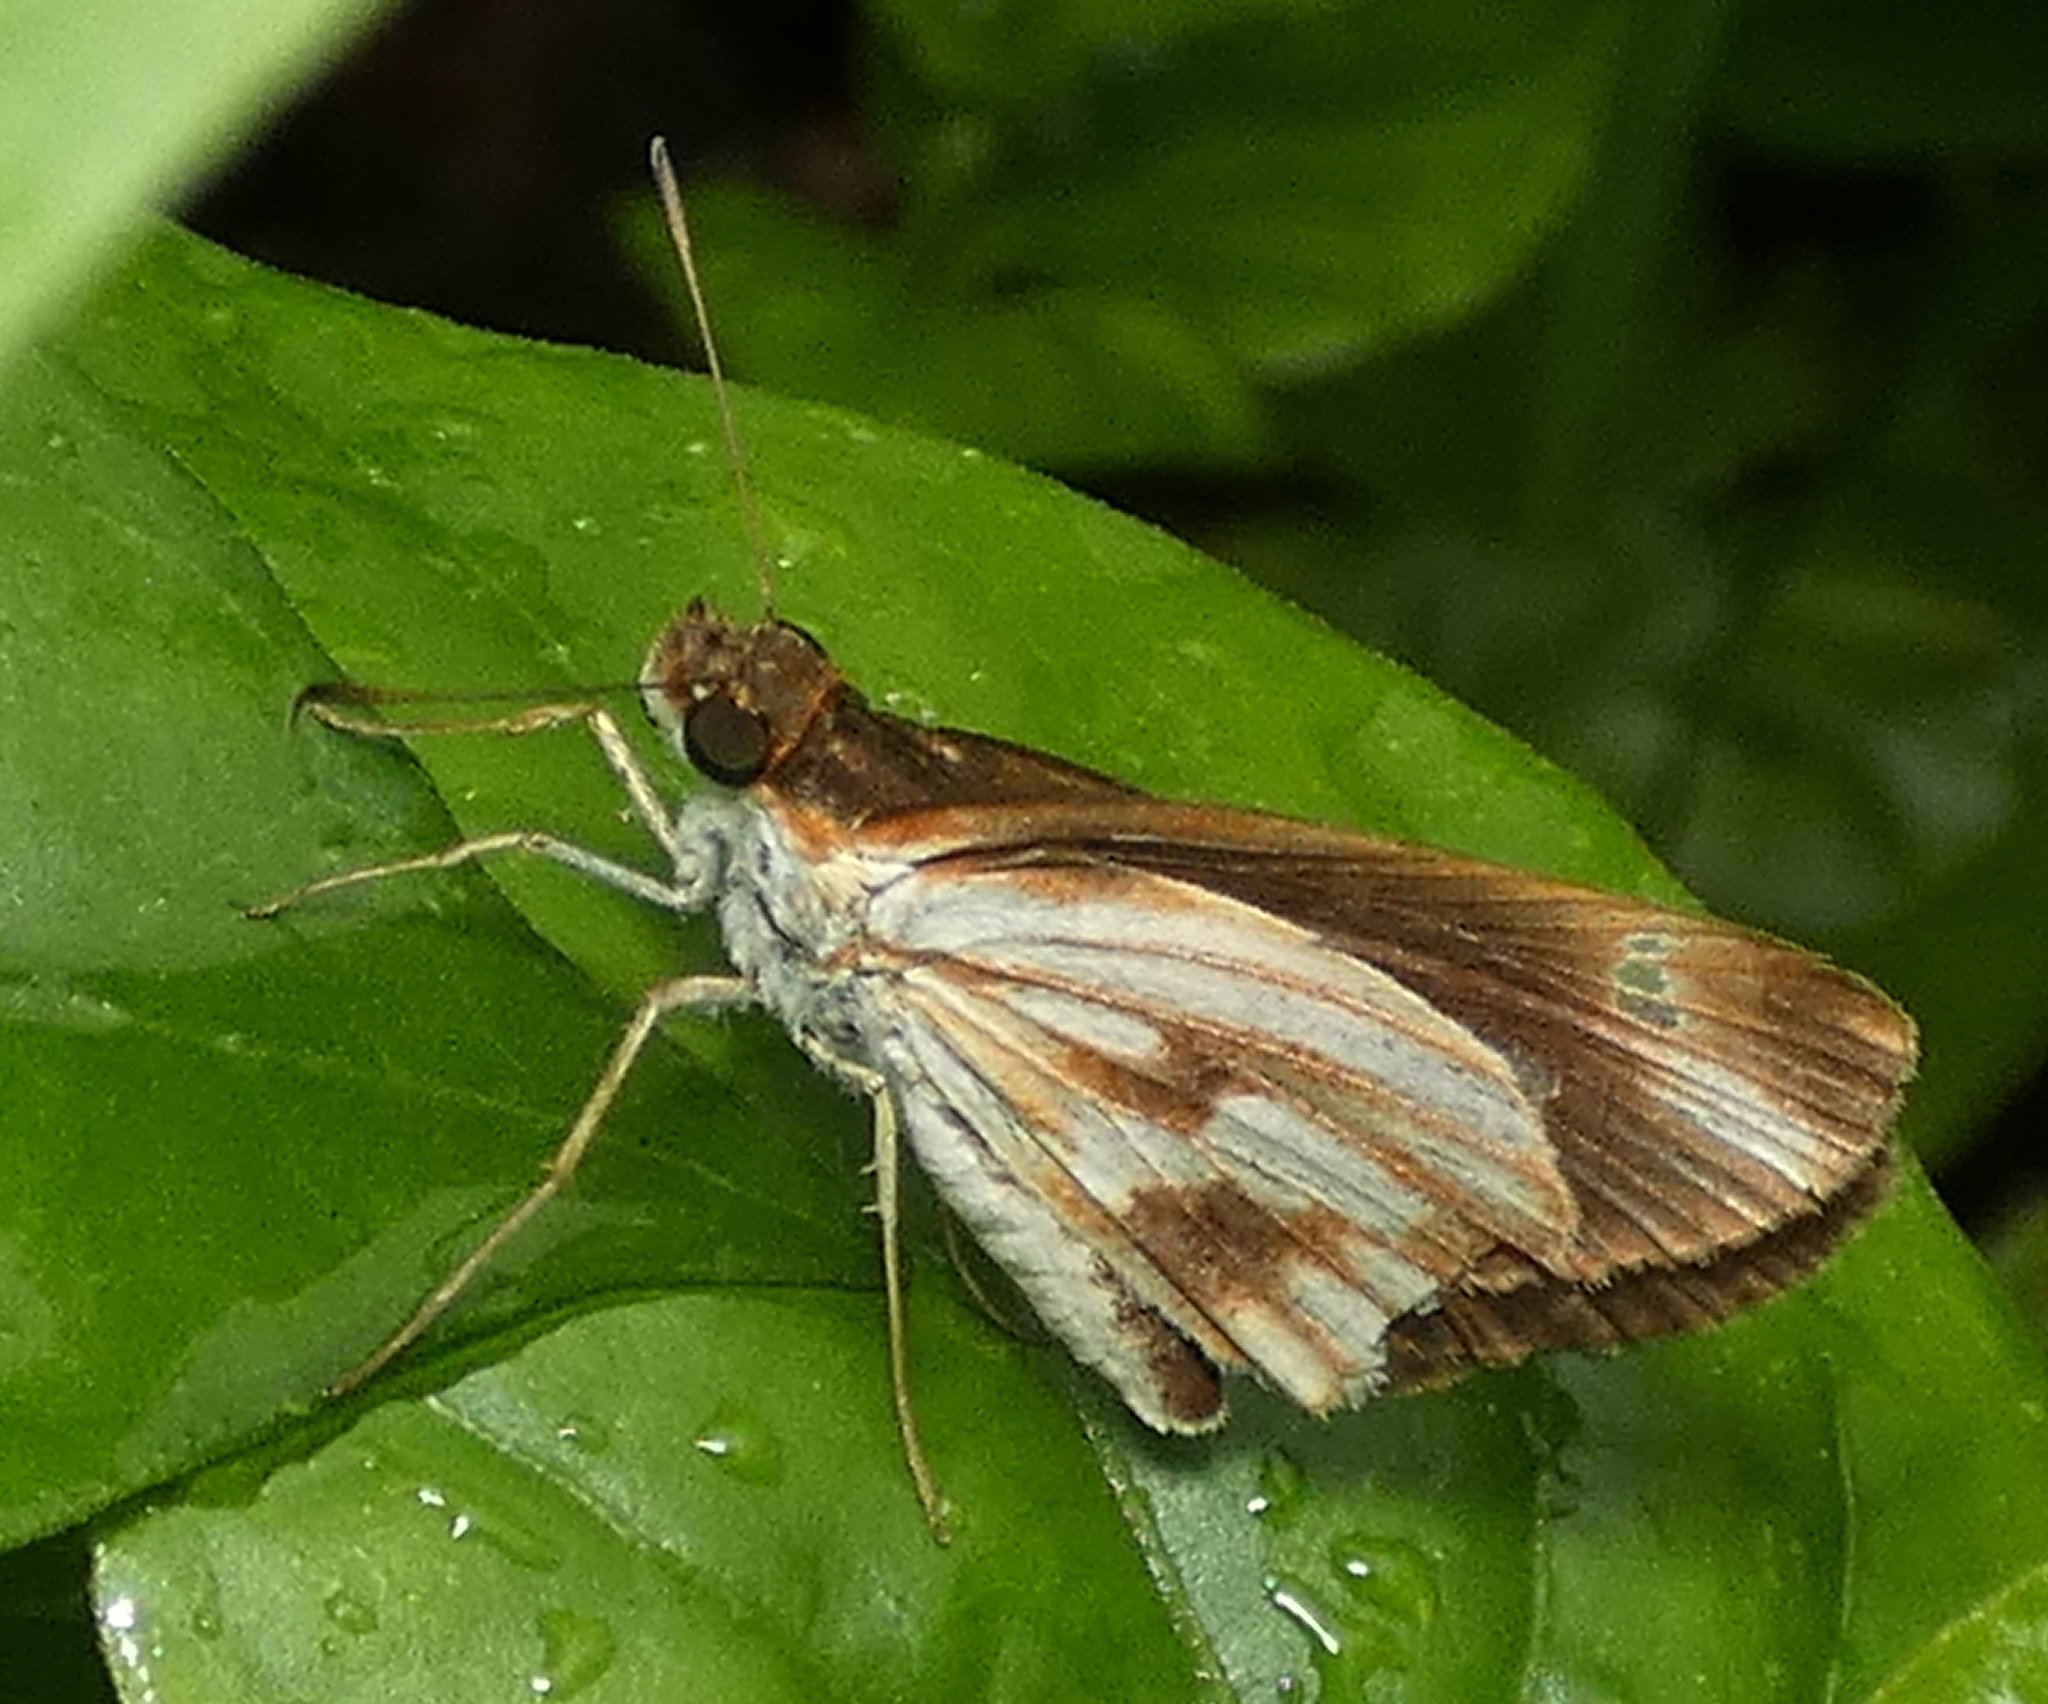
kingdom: Animalia
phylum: Arthropoda
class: Insecta
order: Lepidoptera
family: Hesperiidae
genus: Troyus
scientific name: Troyus fantasos
